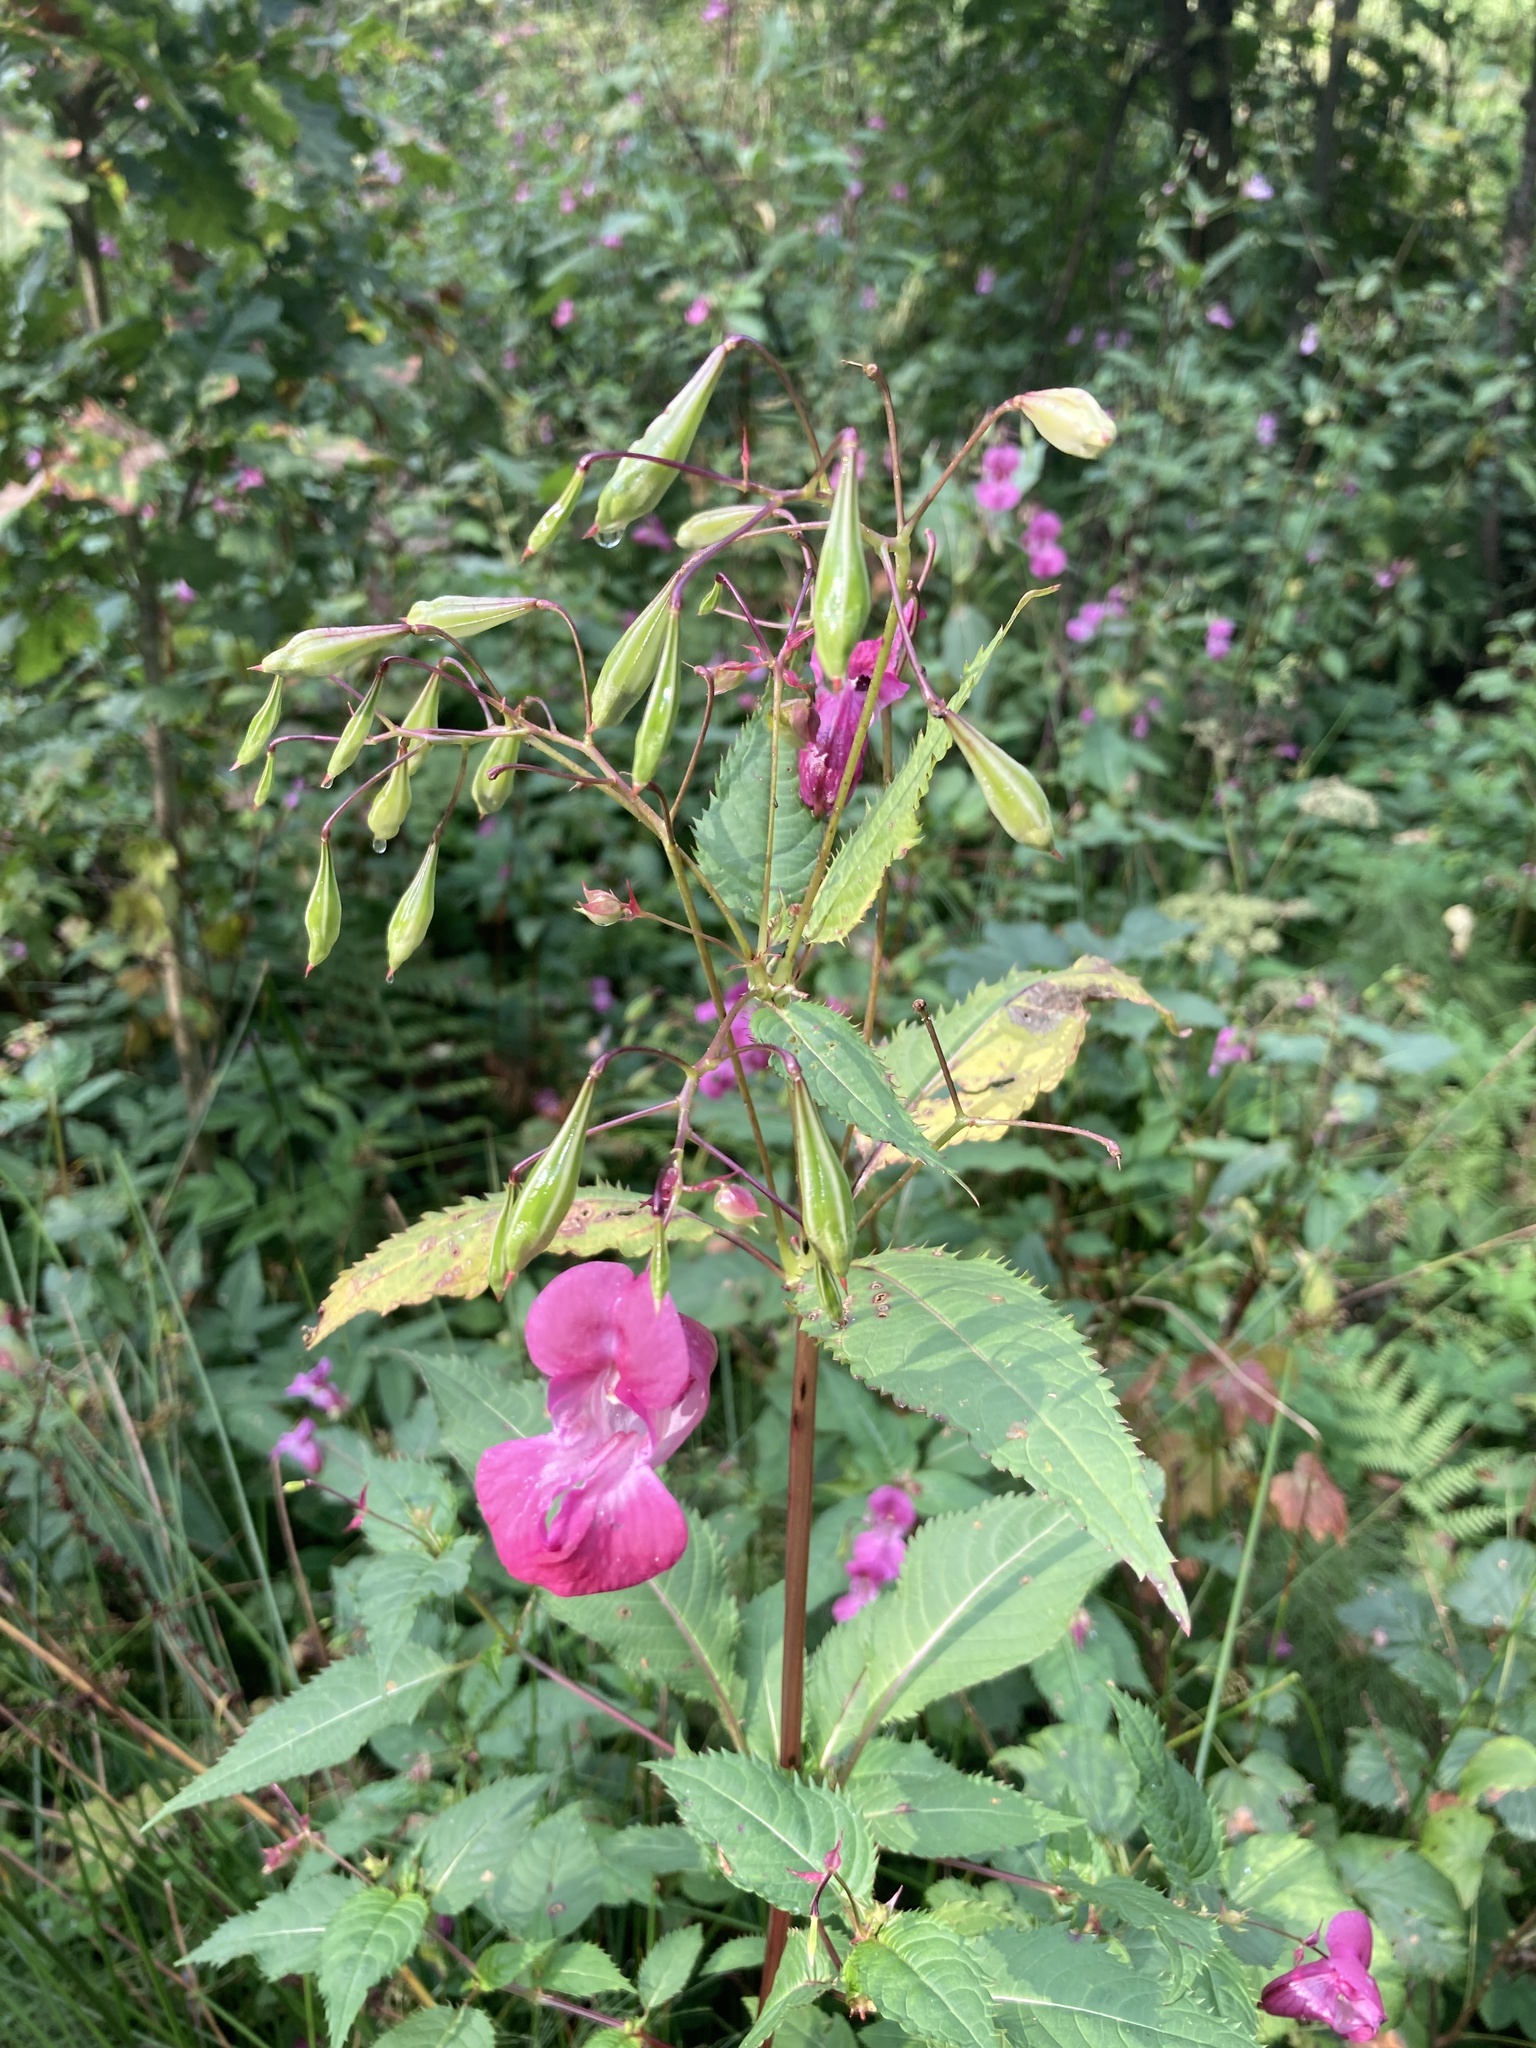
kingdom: Plantae
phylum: Tracheophyta
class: Magnoliopsida
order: Ericales
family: Balsaminaceae
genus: Impatiens
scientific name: Impatiens glandulifera
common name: Himalayan balsam
